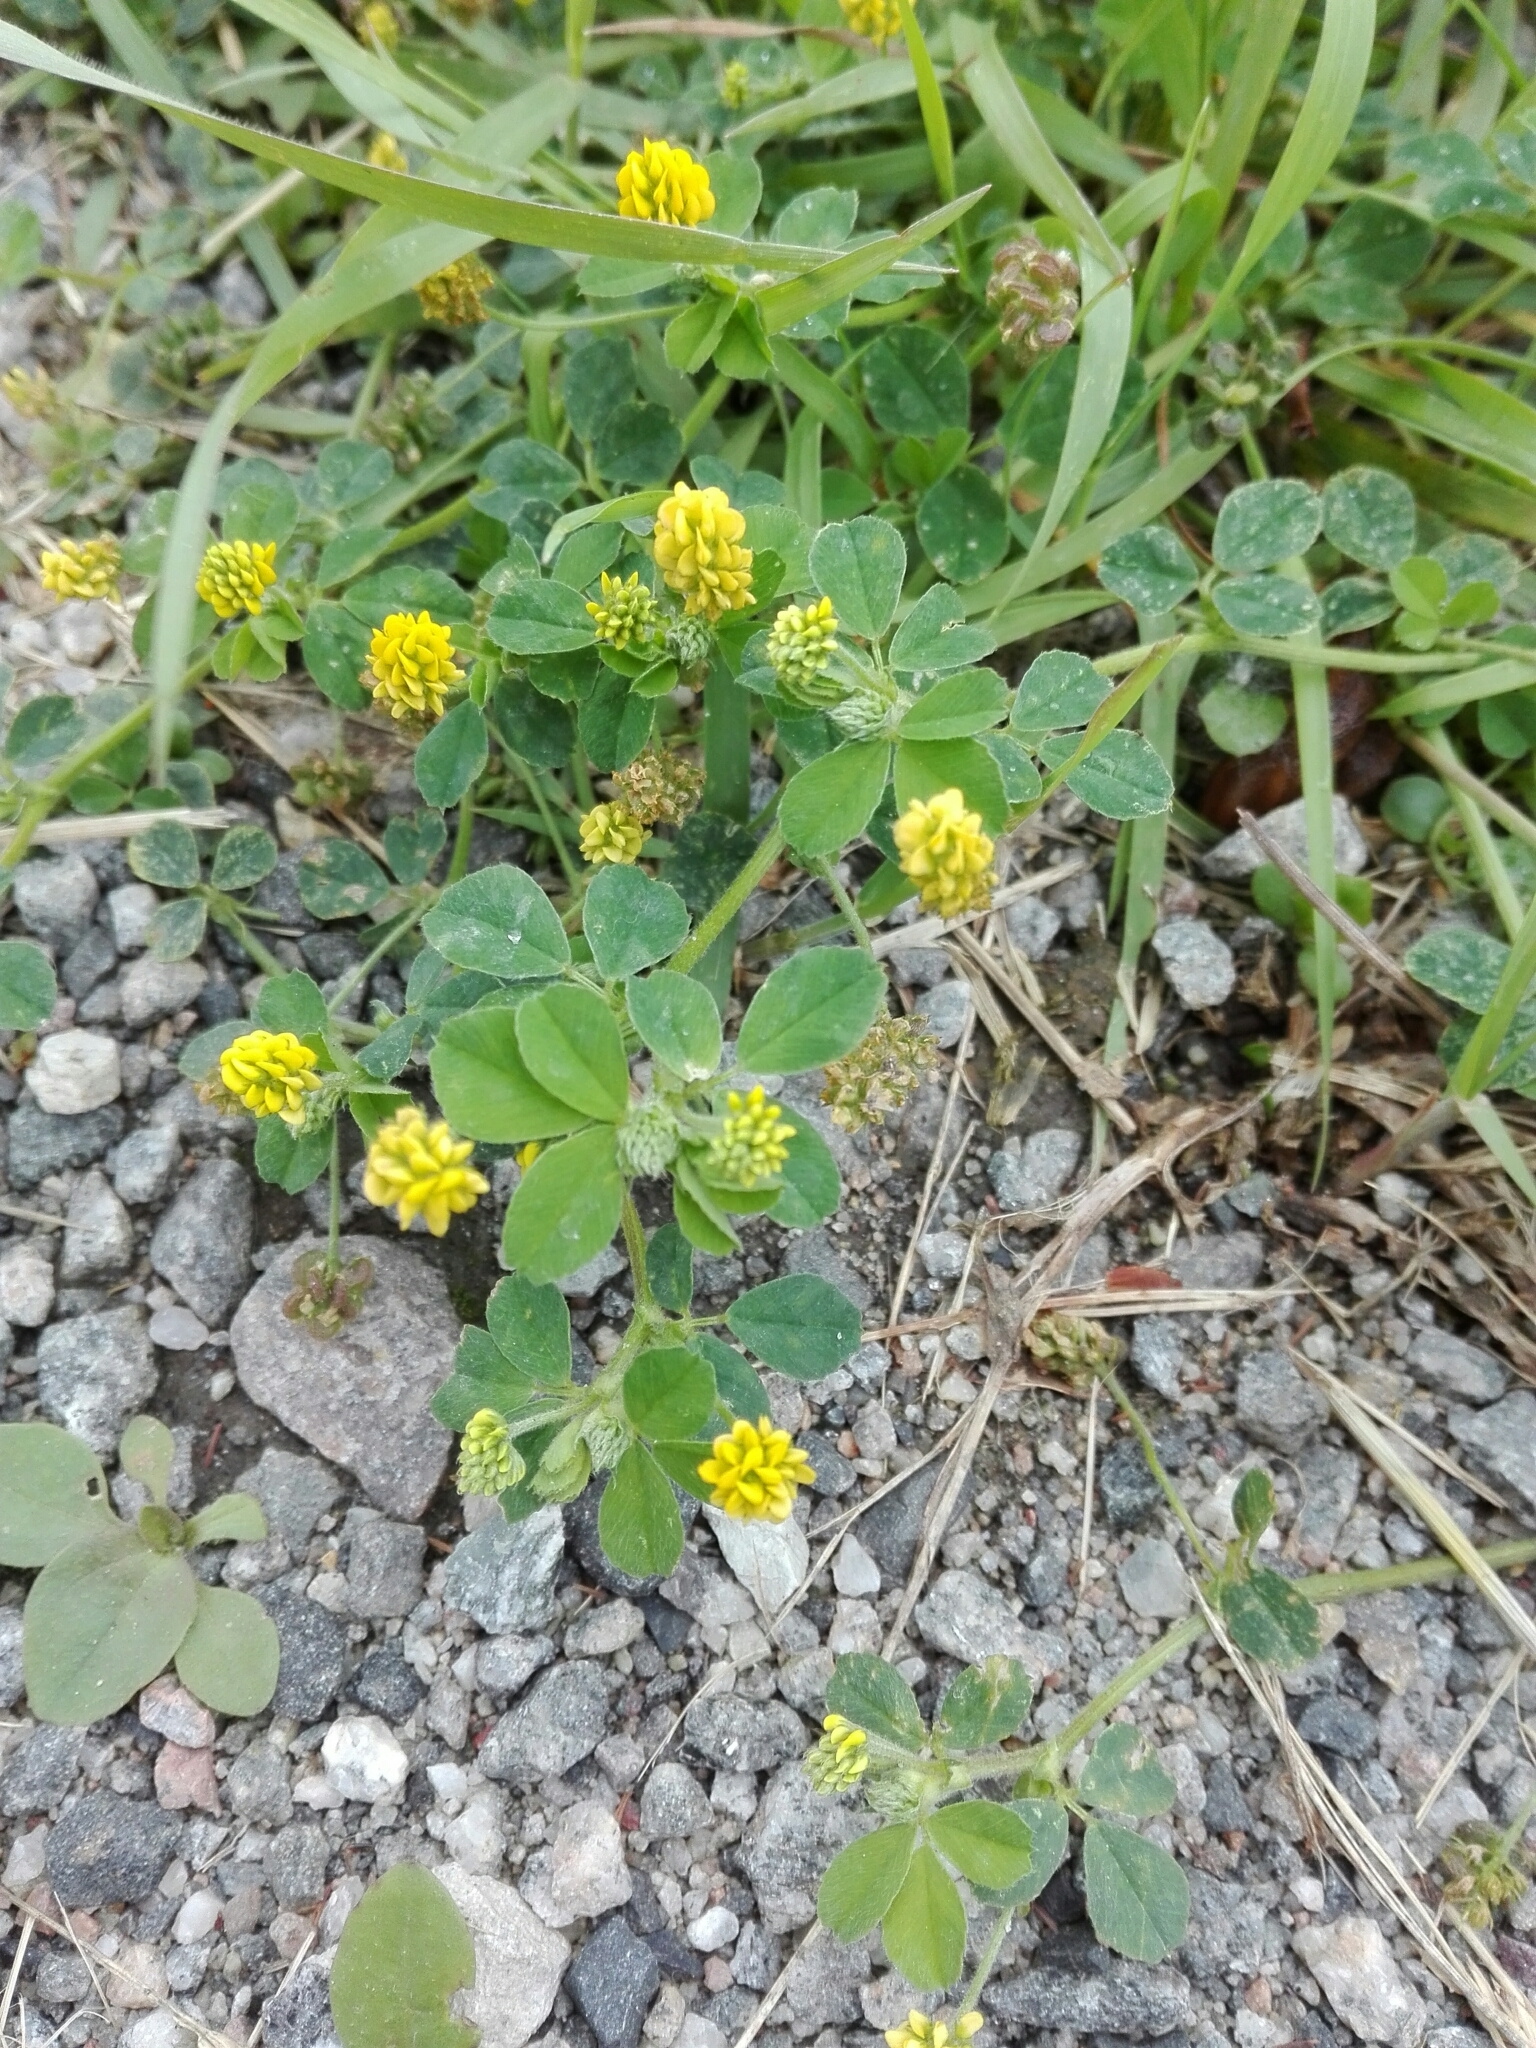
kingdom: Plantae
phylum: Tracheophyta
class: Magnoliopsida
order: Fabales
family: Fabaceae
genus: Medicago
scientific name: Medicago lupulina
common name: Black medick
